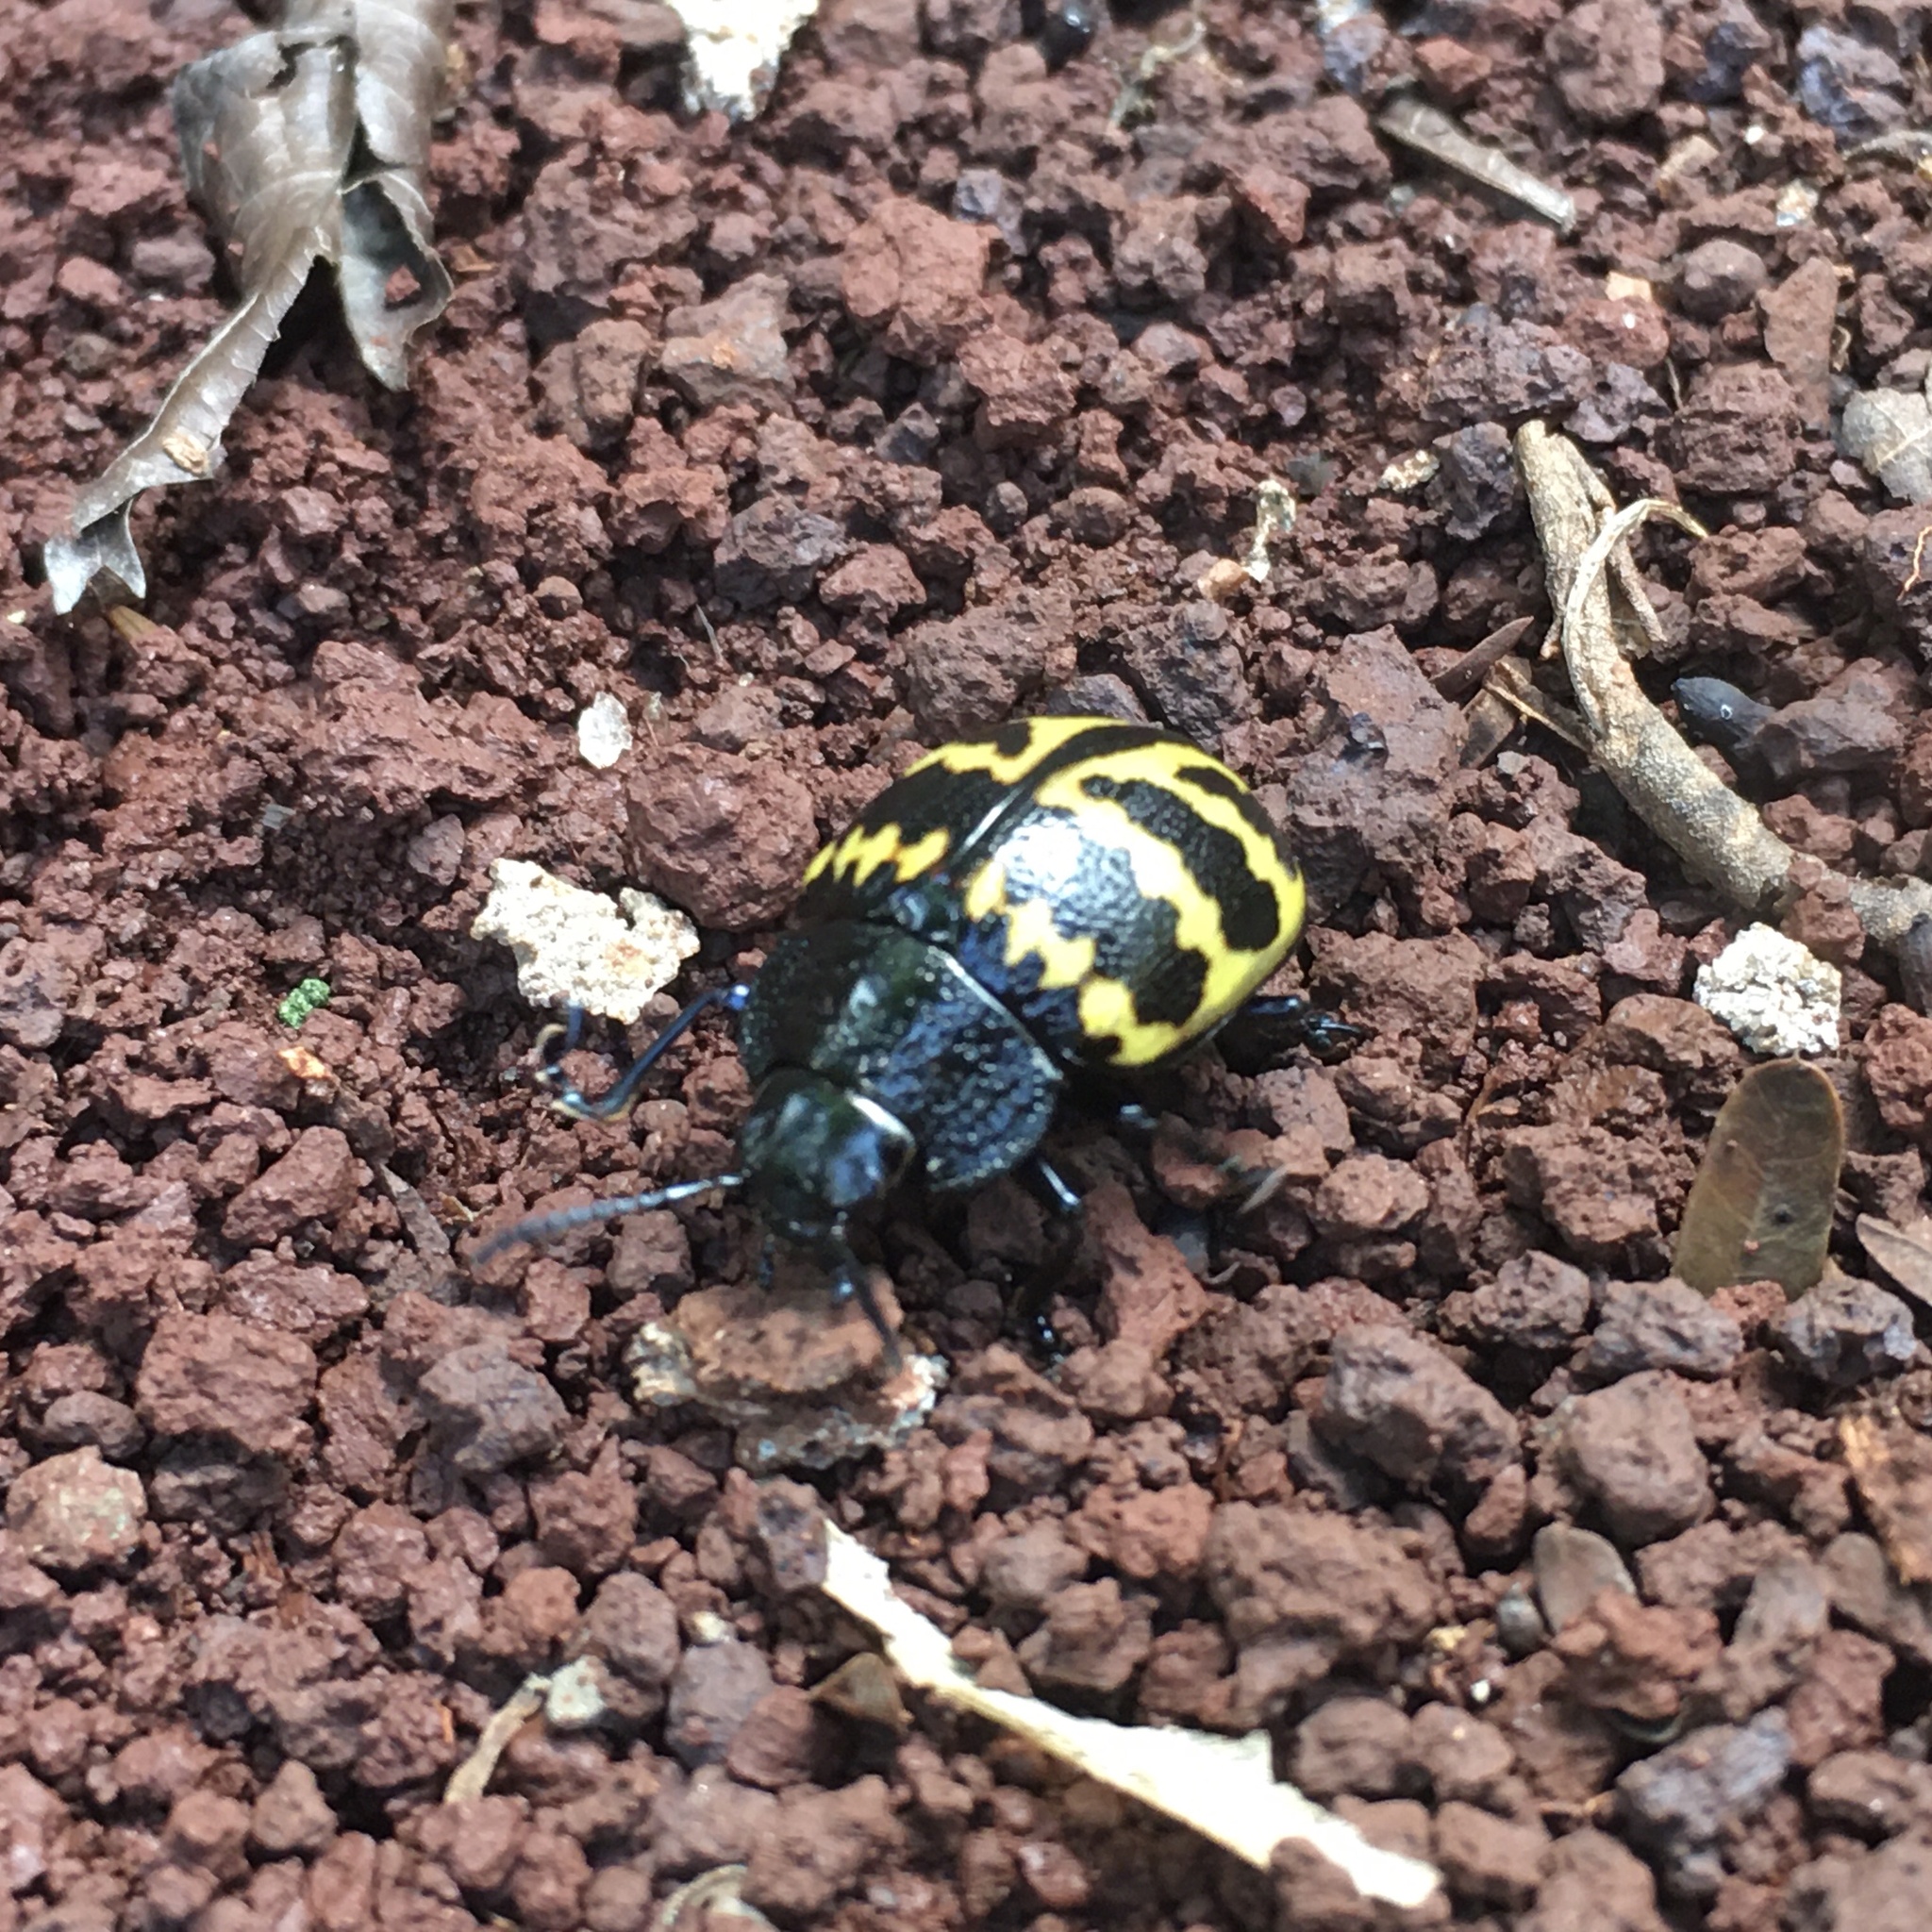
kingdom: Animalia
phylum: Arthropoda
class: Insecta
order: Coleoptera
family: Chrysomelidae
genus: Platyphora
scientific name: Platyphora
